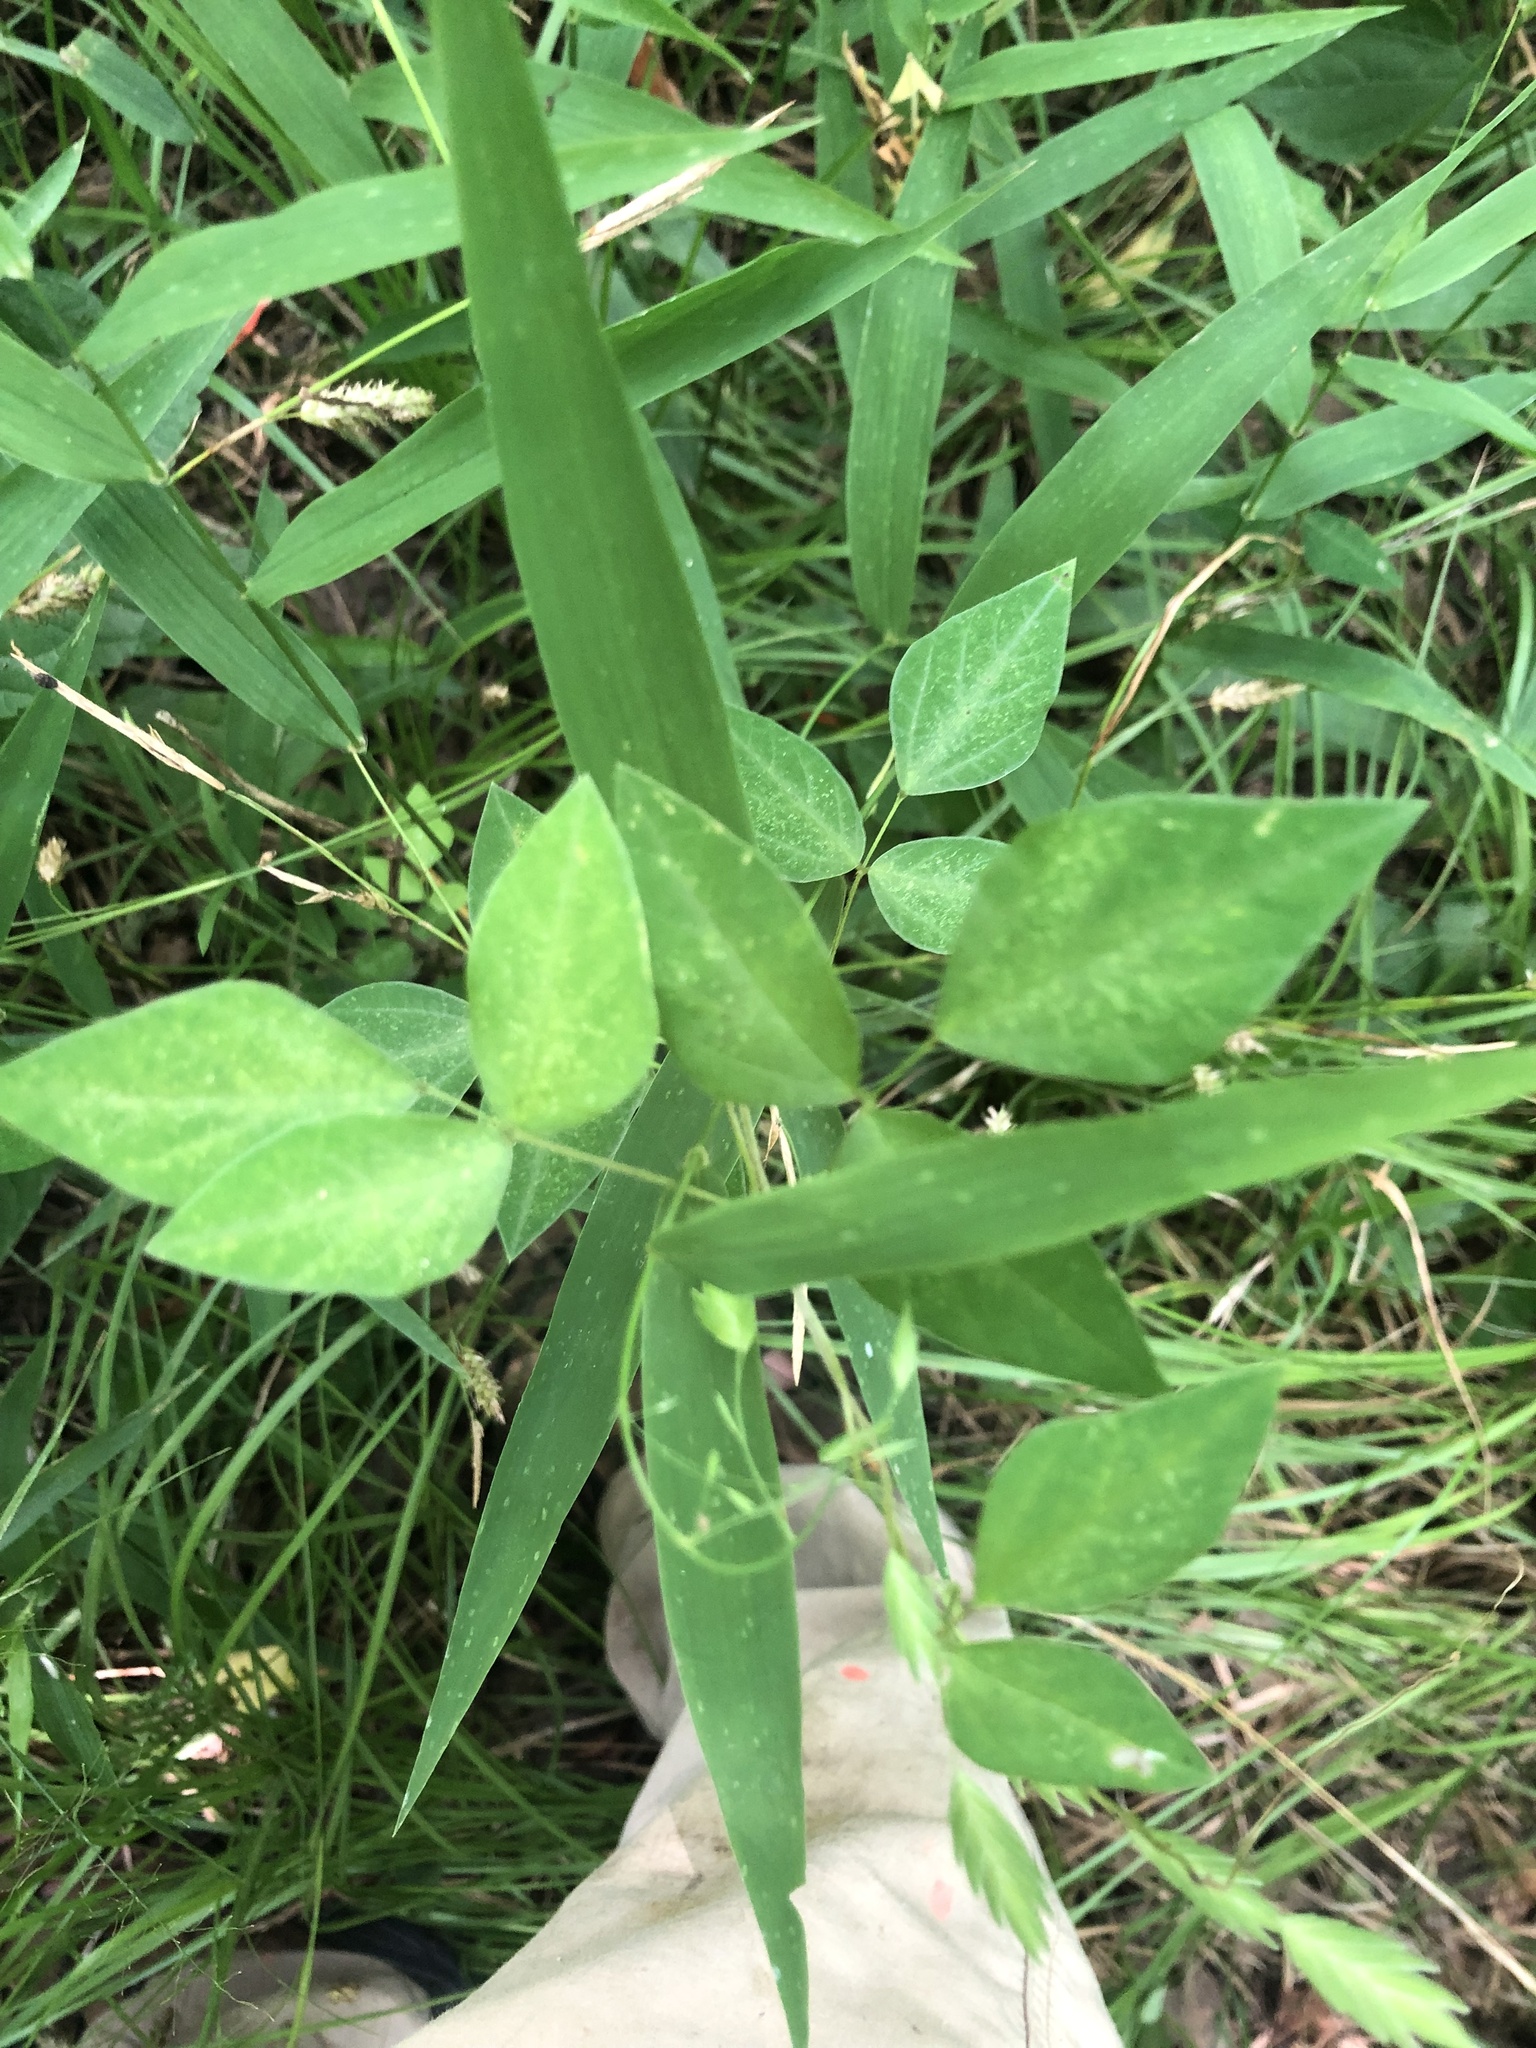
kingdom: Plantae
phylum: Tracheophyta
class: Magnoliopsida
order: Fabales
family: Fabaceae
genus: Amphicarpaea
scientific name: Amphicarpaea bracteata
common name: American hog peanut
